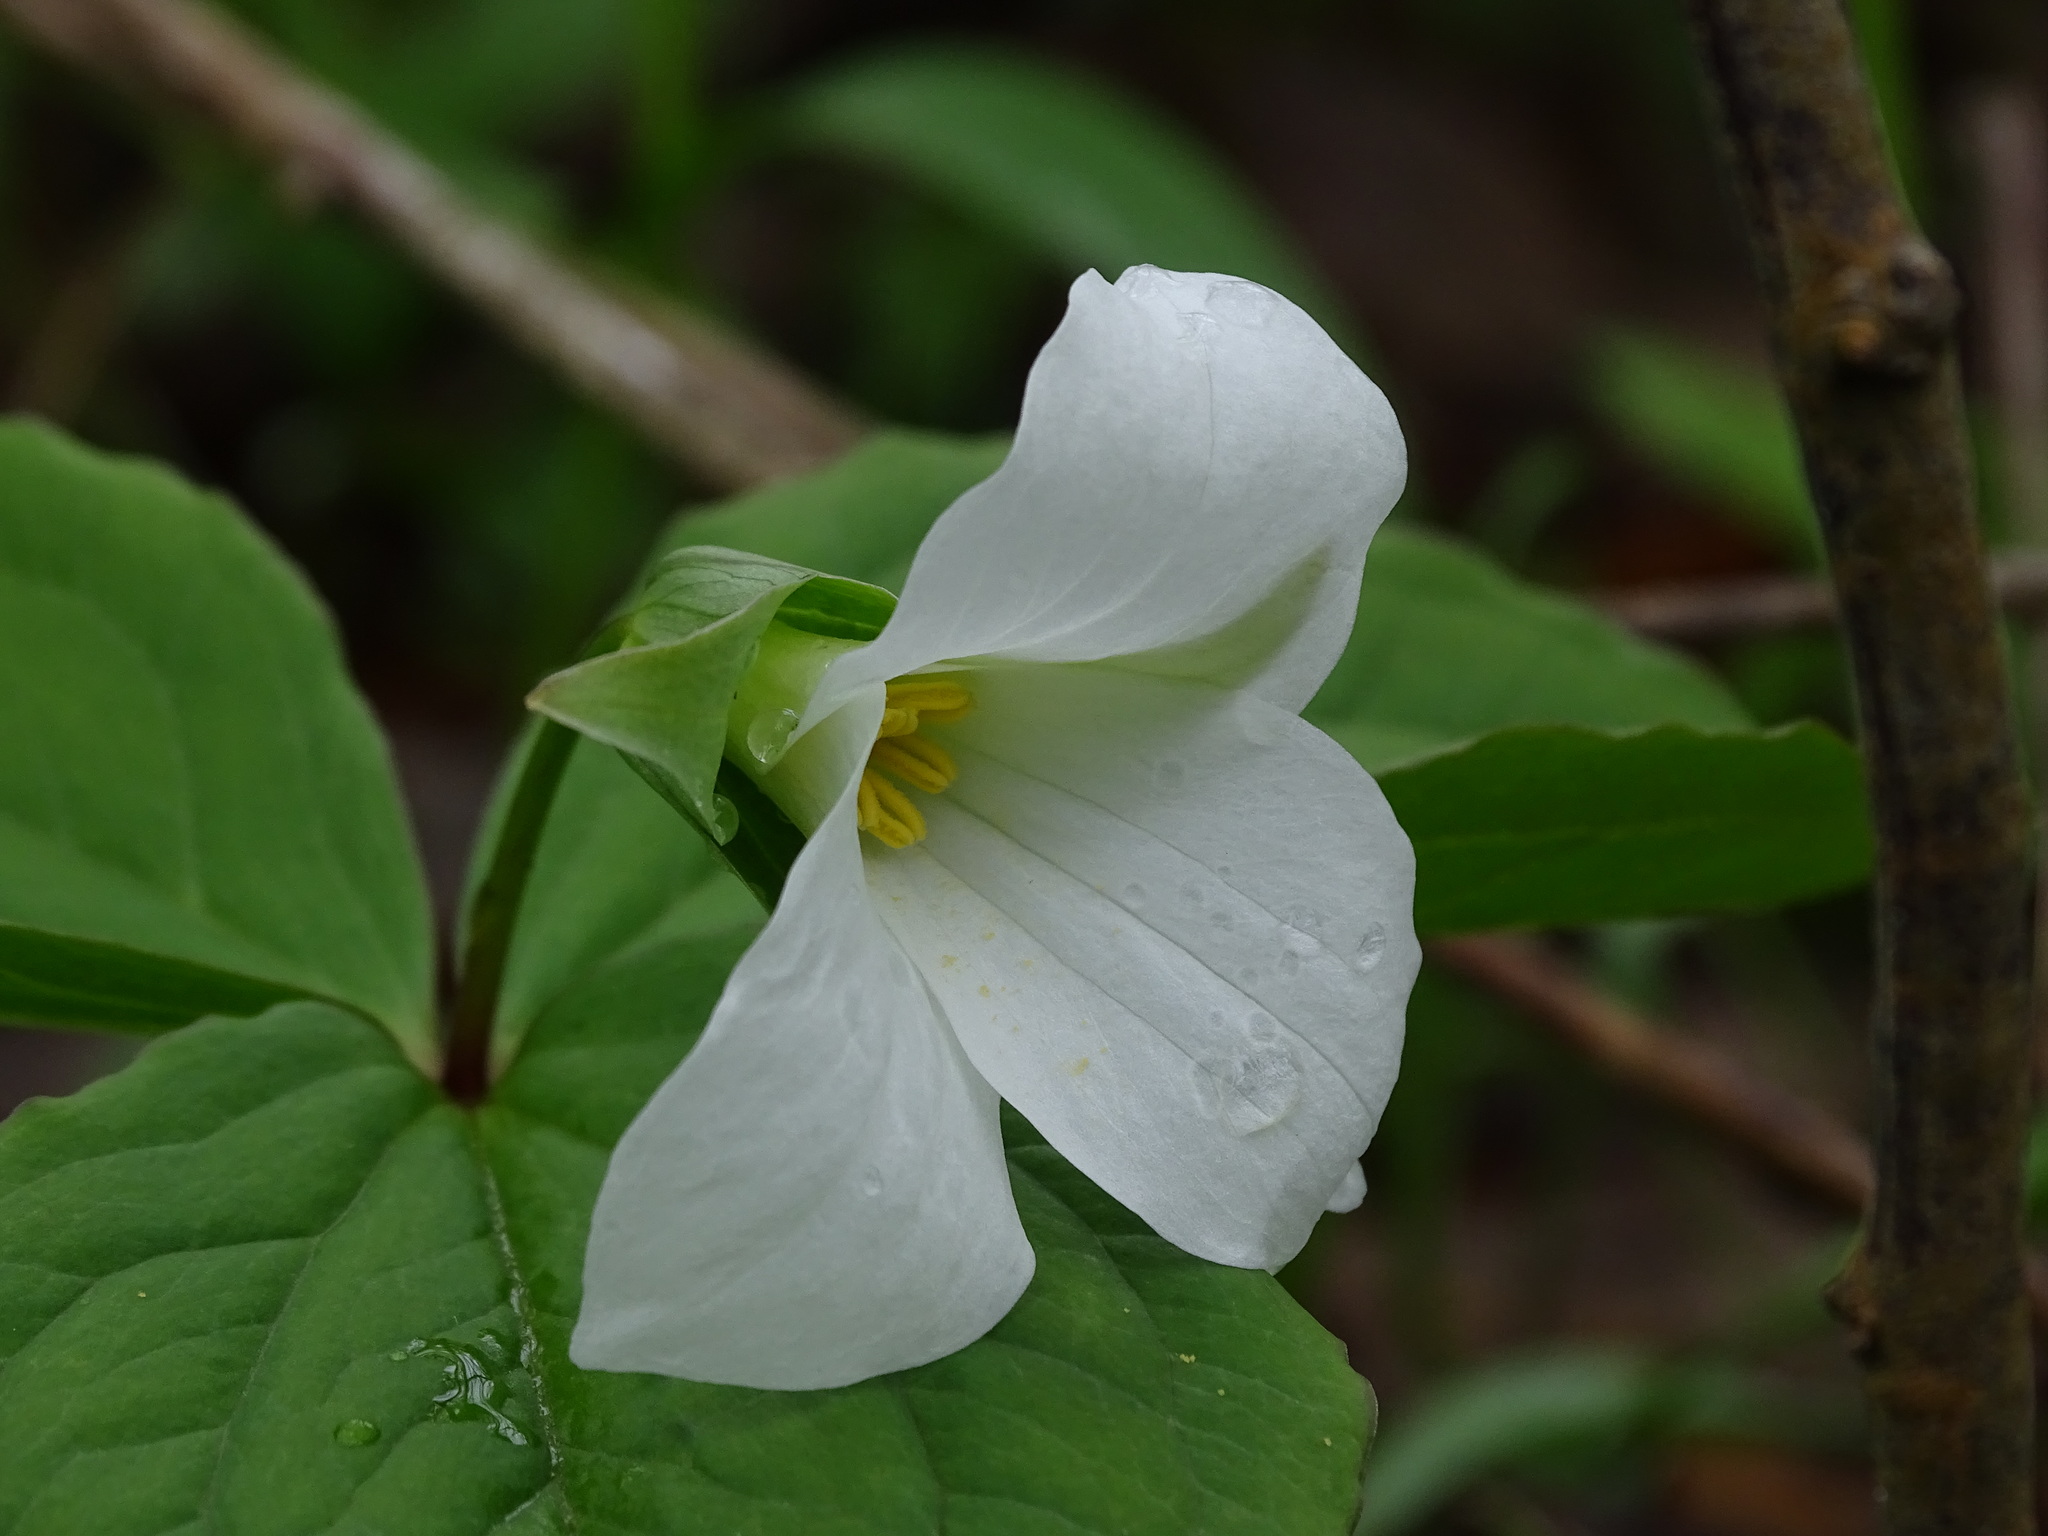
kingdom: Plantae
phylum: Tracheophyta
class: Liliopsida
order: Liliales
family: Melanthiaceae
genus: Trillium
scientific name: Trillium grandiflorum
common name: Great white trillium
